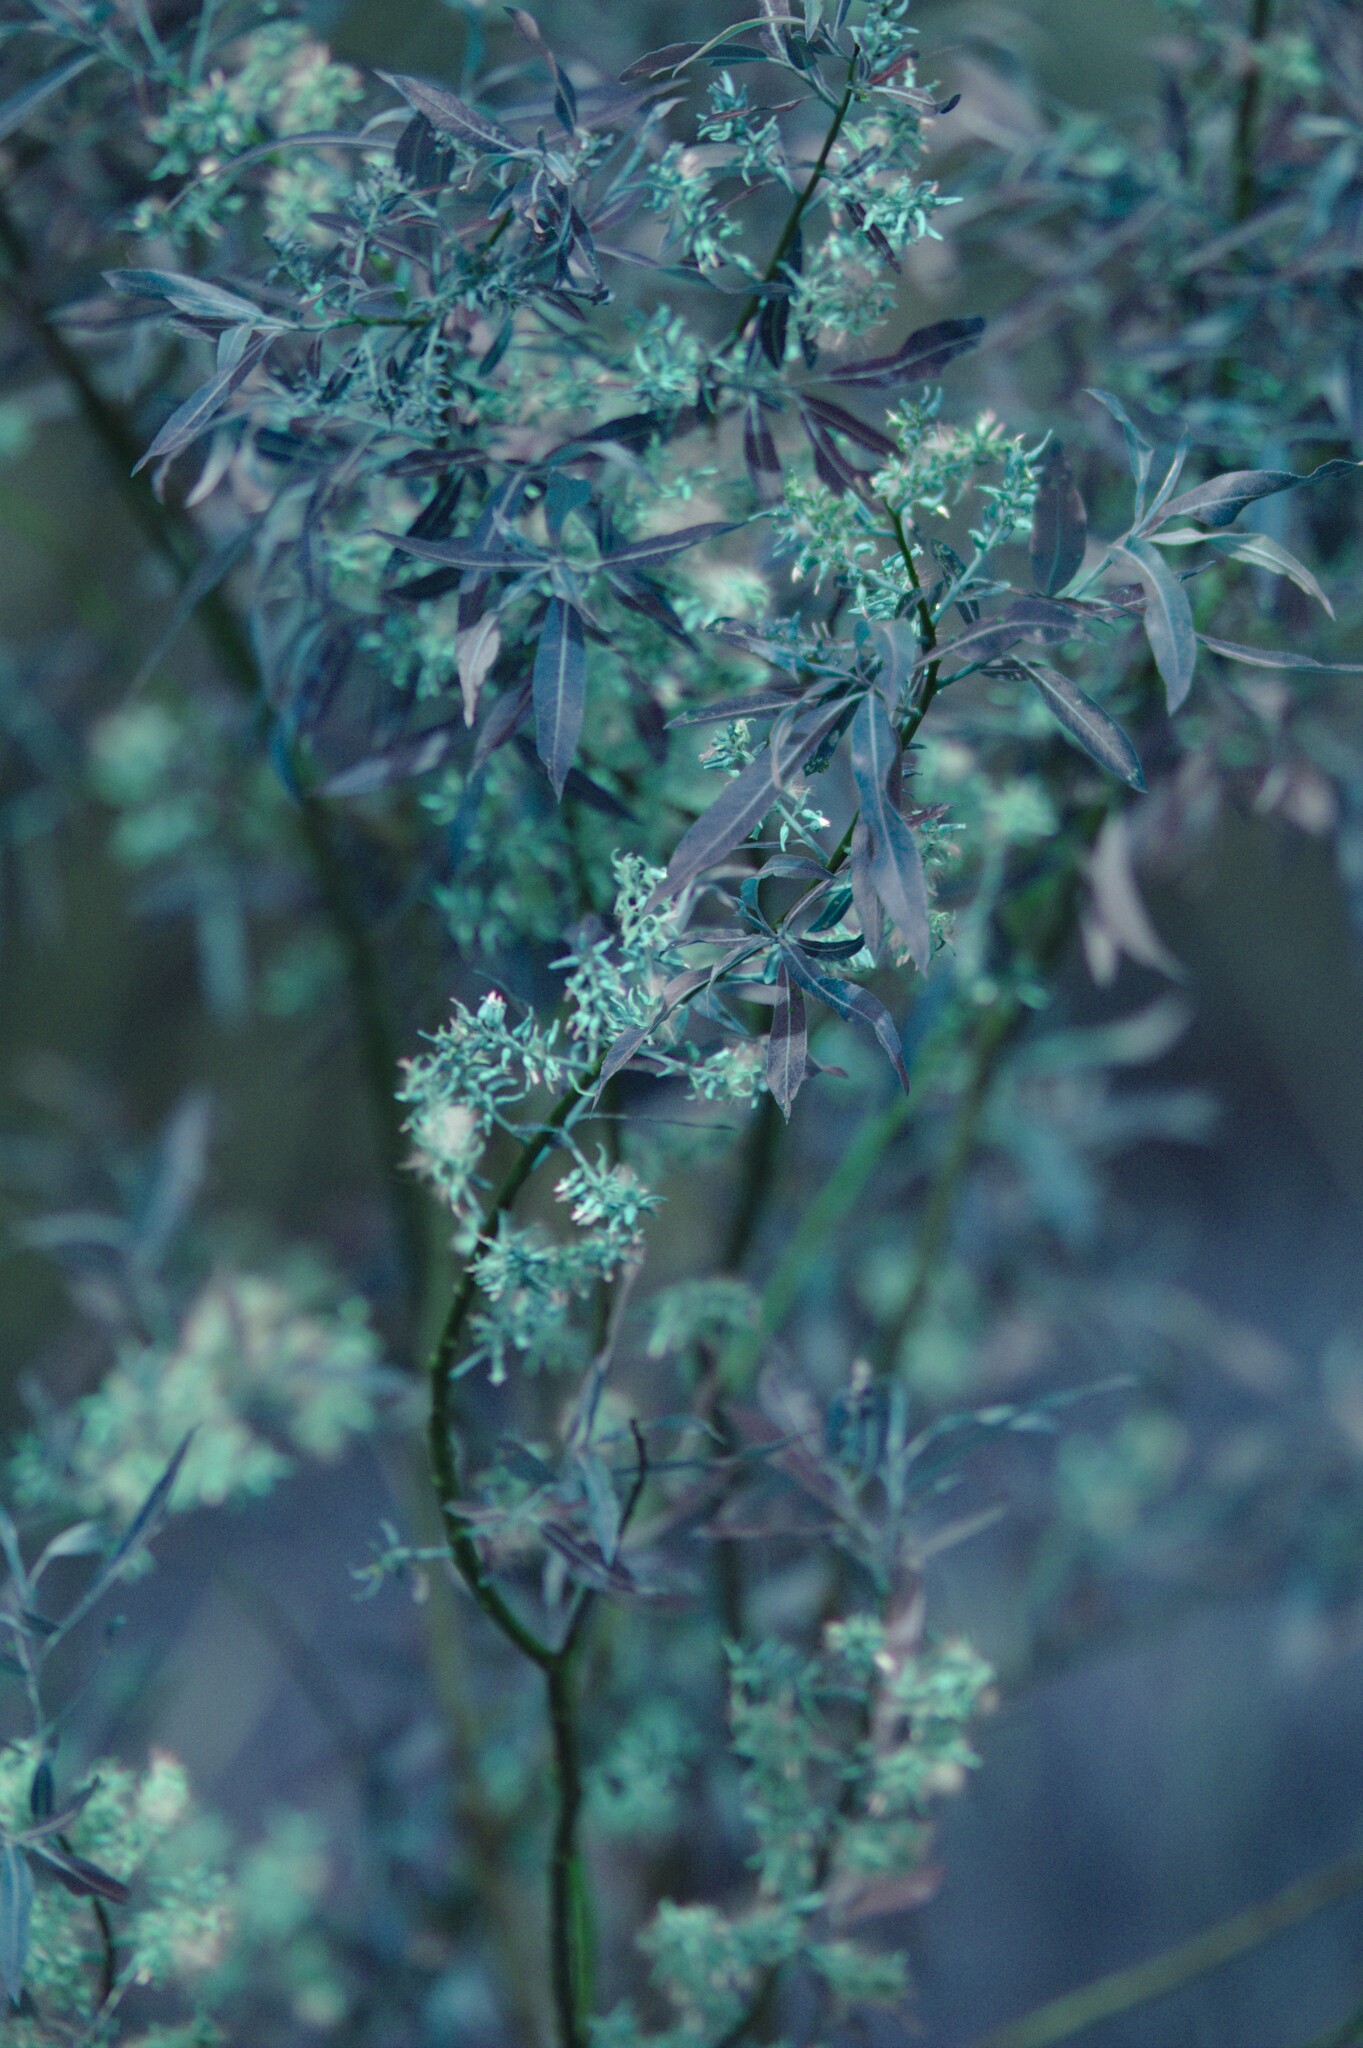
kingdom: Plantae
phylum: Tracheophyta
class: Magnoliopsida
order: Malpighiales
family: Salicaceae
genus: Salix
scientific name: Salix petiolaris
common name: Slender willow
